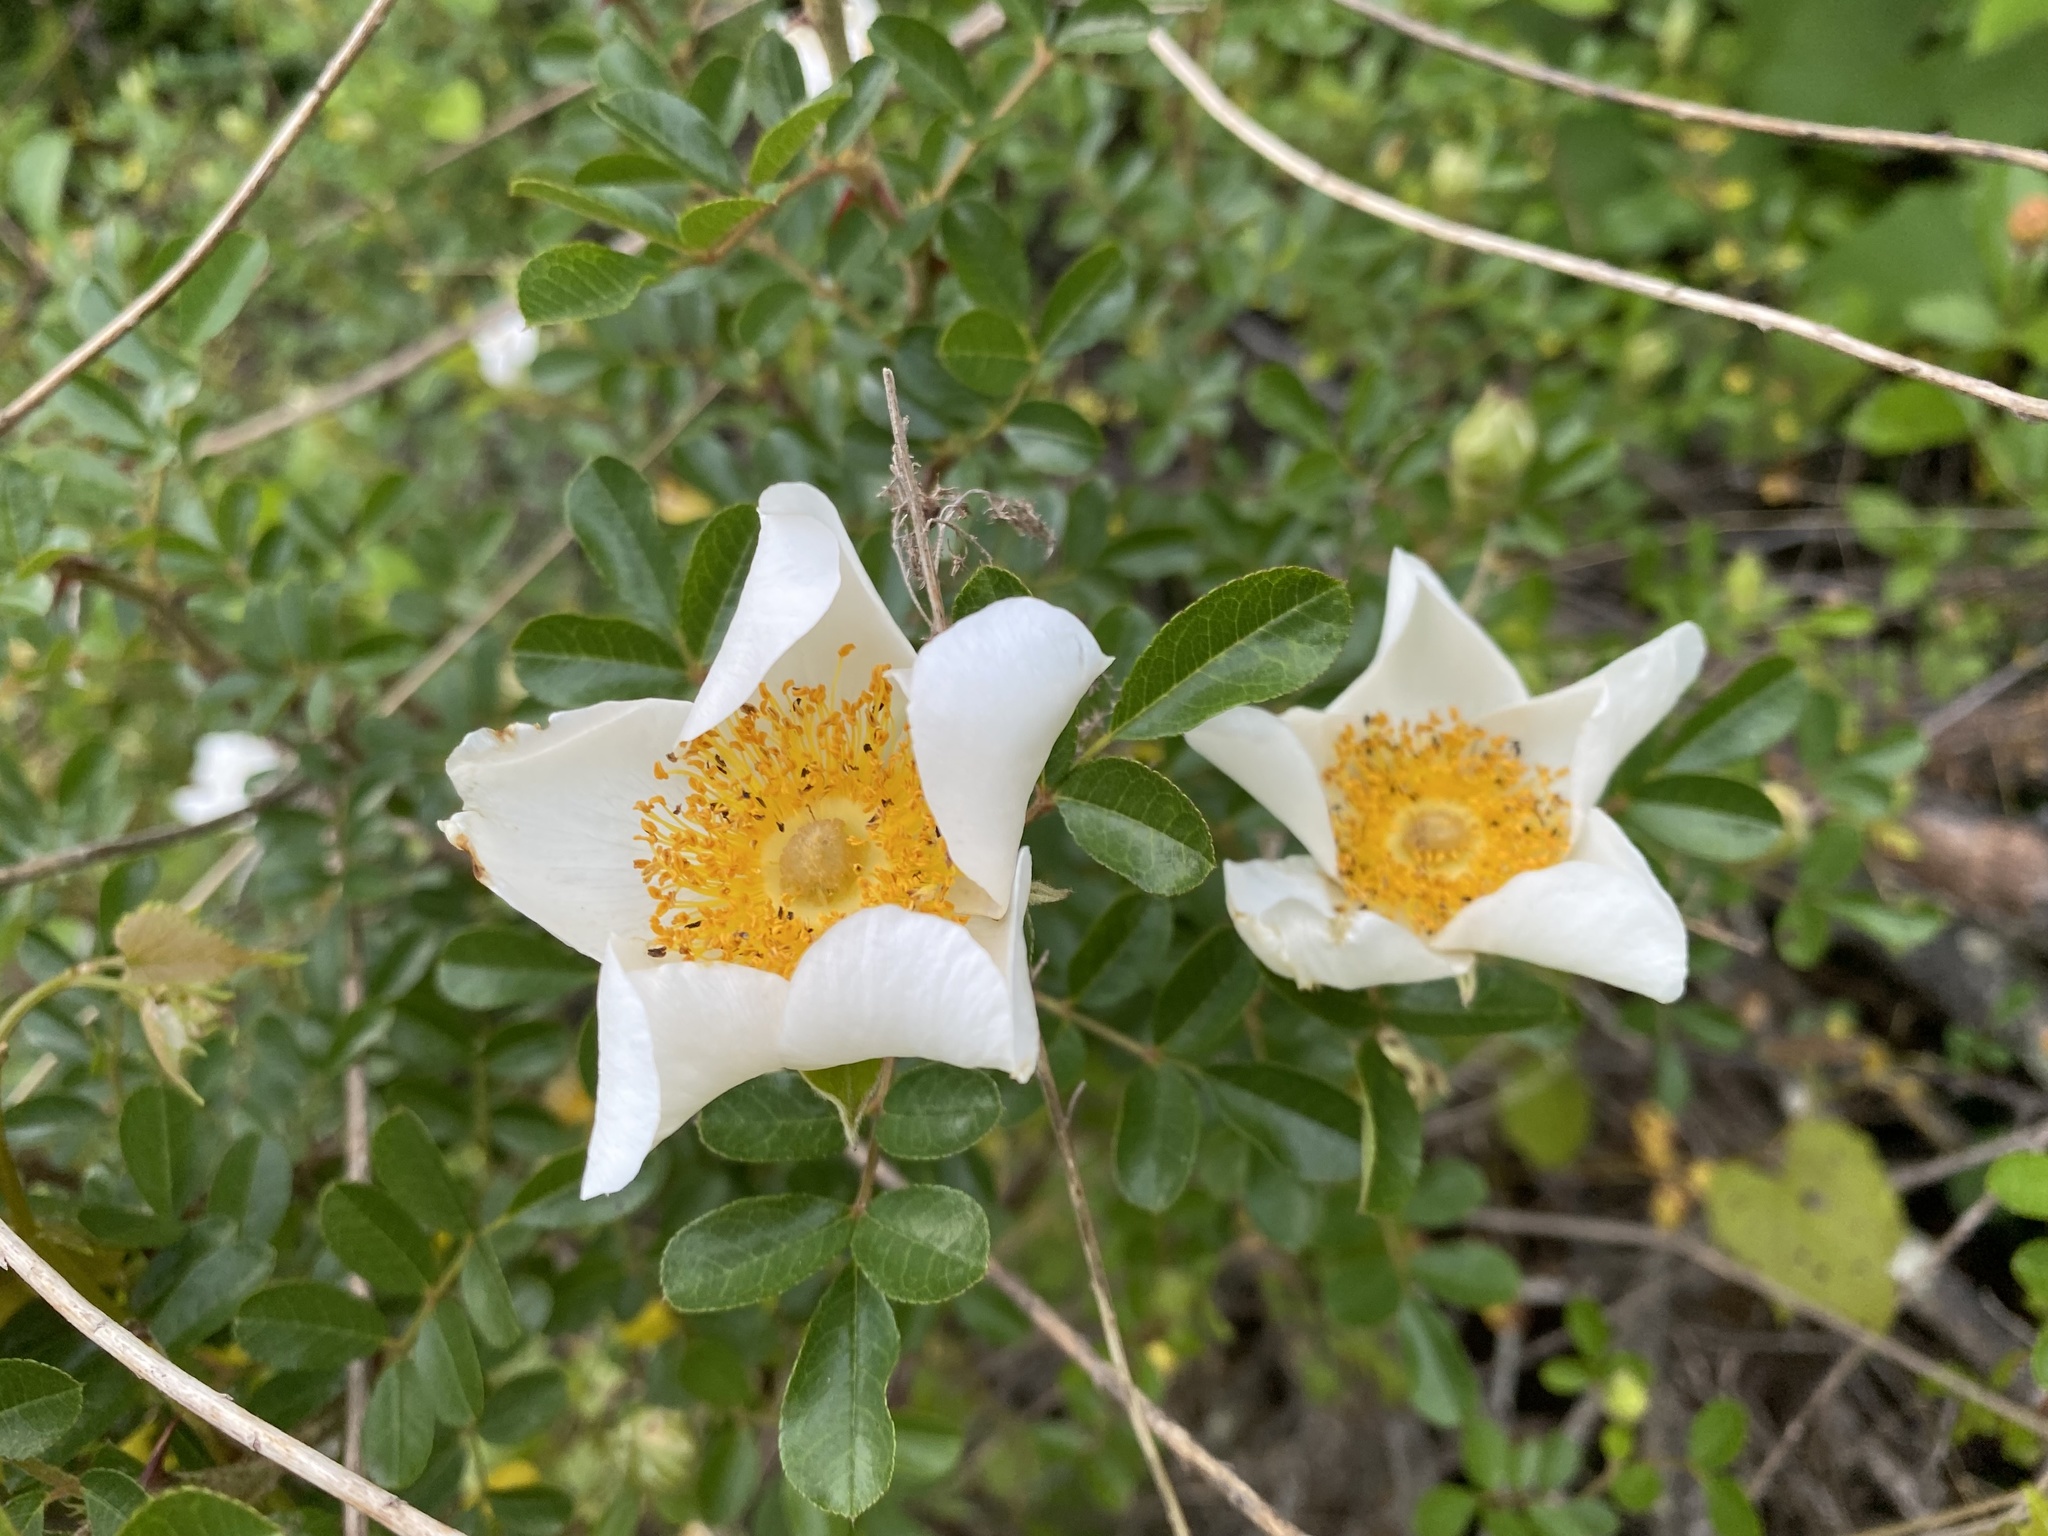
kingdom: Plantae
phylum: Tracheophyta
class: Magnoliopsida
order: Rosales
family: Rosaceae
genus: Rosa
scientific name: Rosa bracteata
